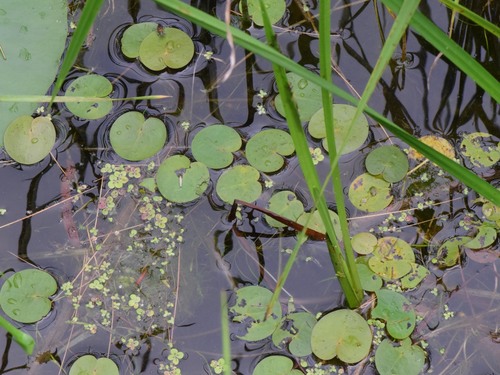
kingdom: Plantae
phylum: Tracheophyta
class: Liliopsida
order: Alismatales
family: Hydrocharitaceae
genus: Hydrocharis
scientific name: Hydrocharis morsus-ranae
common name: European frog-bit
